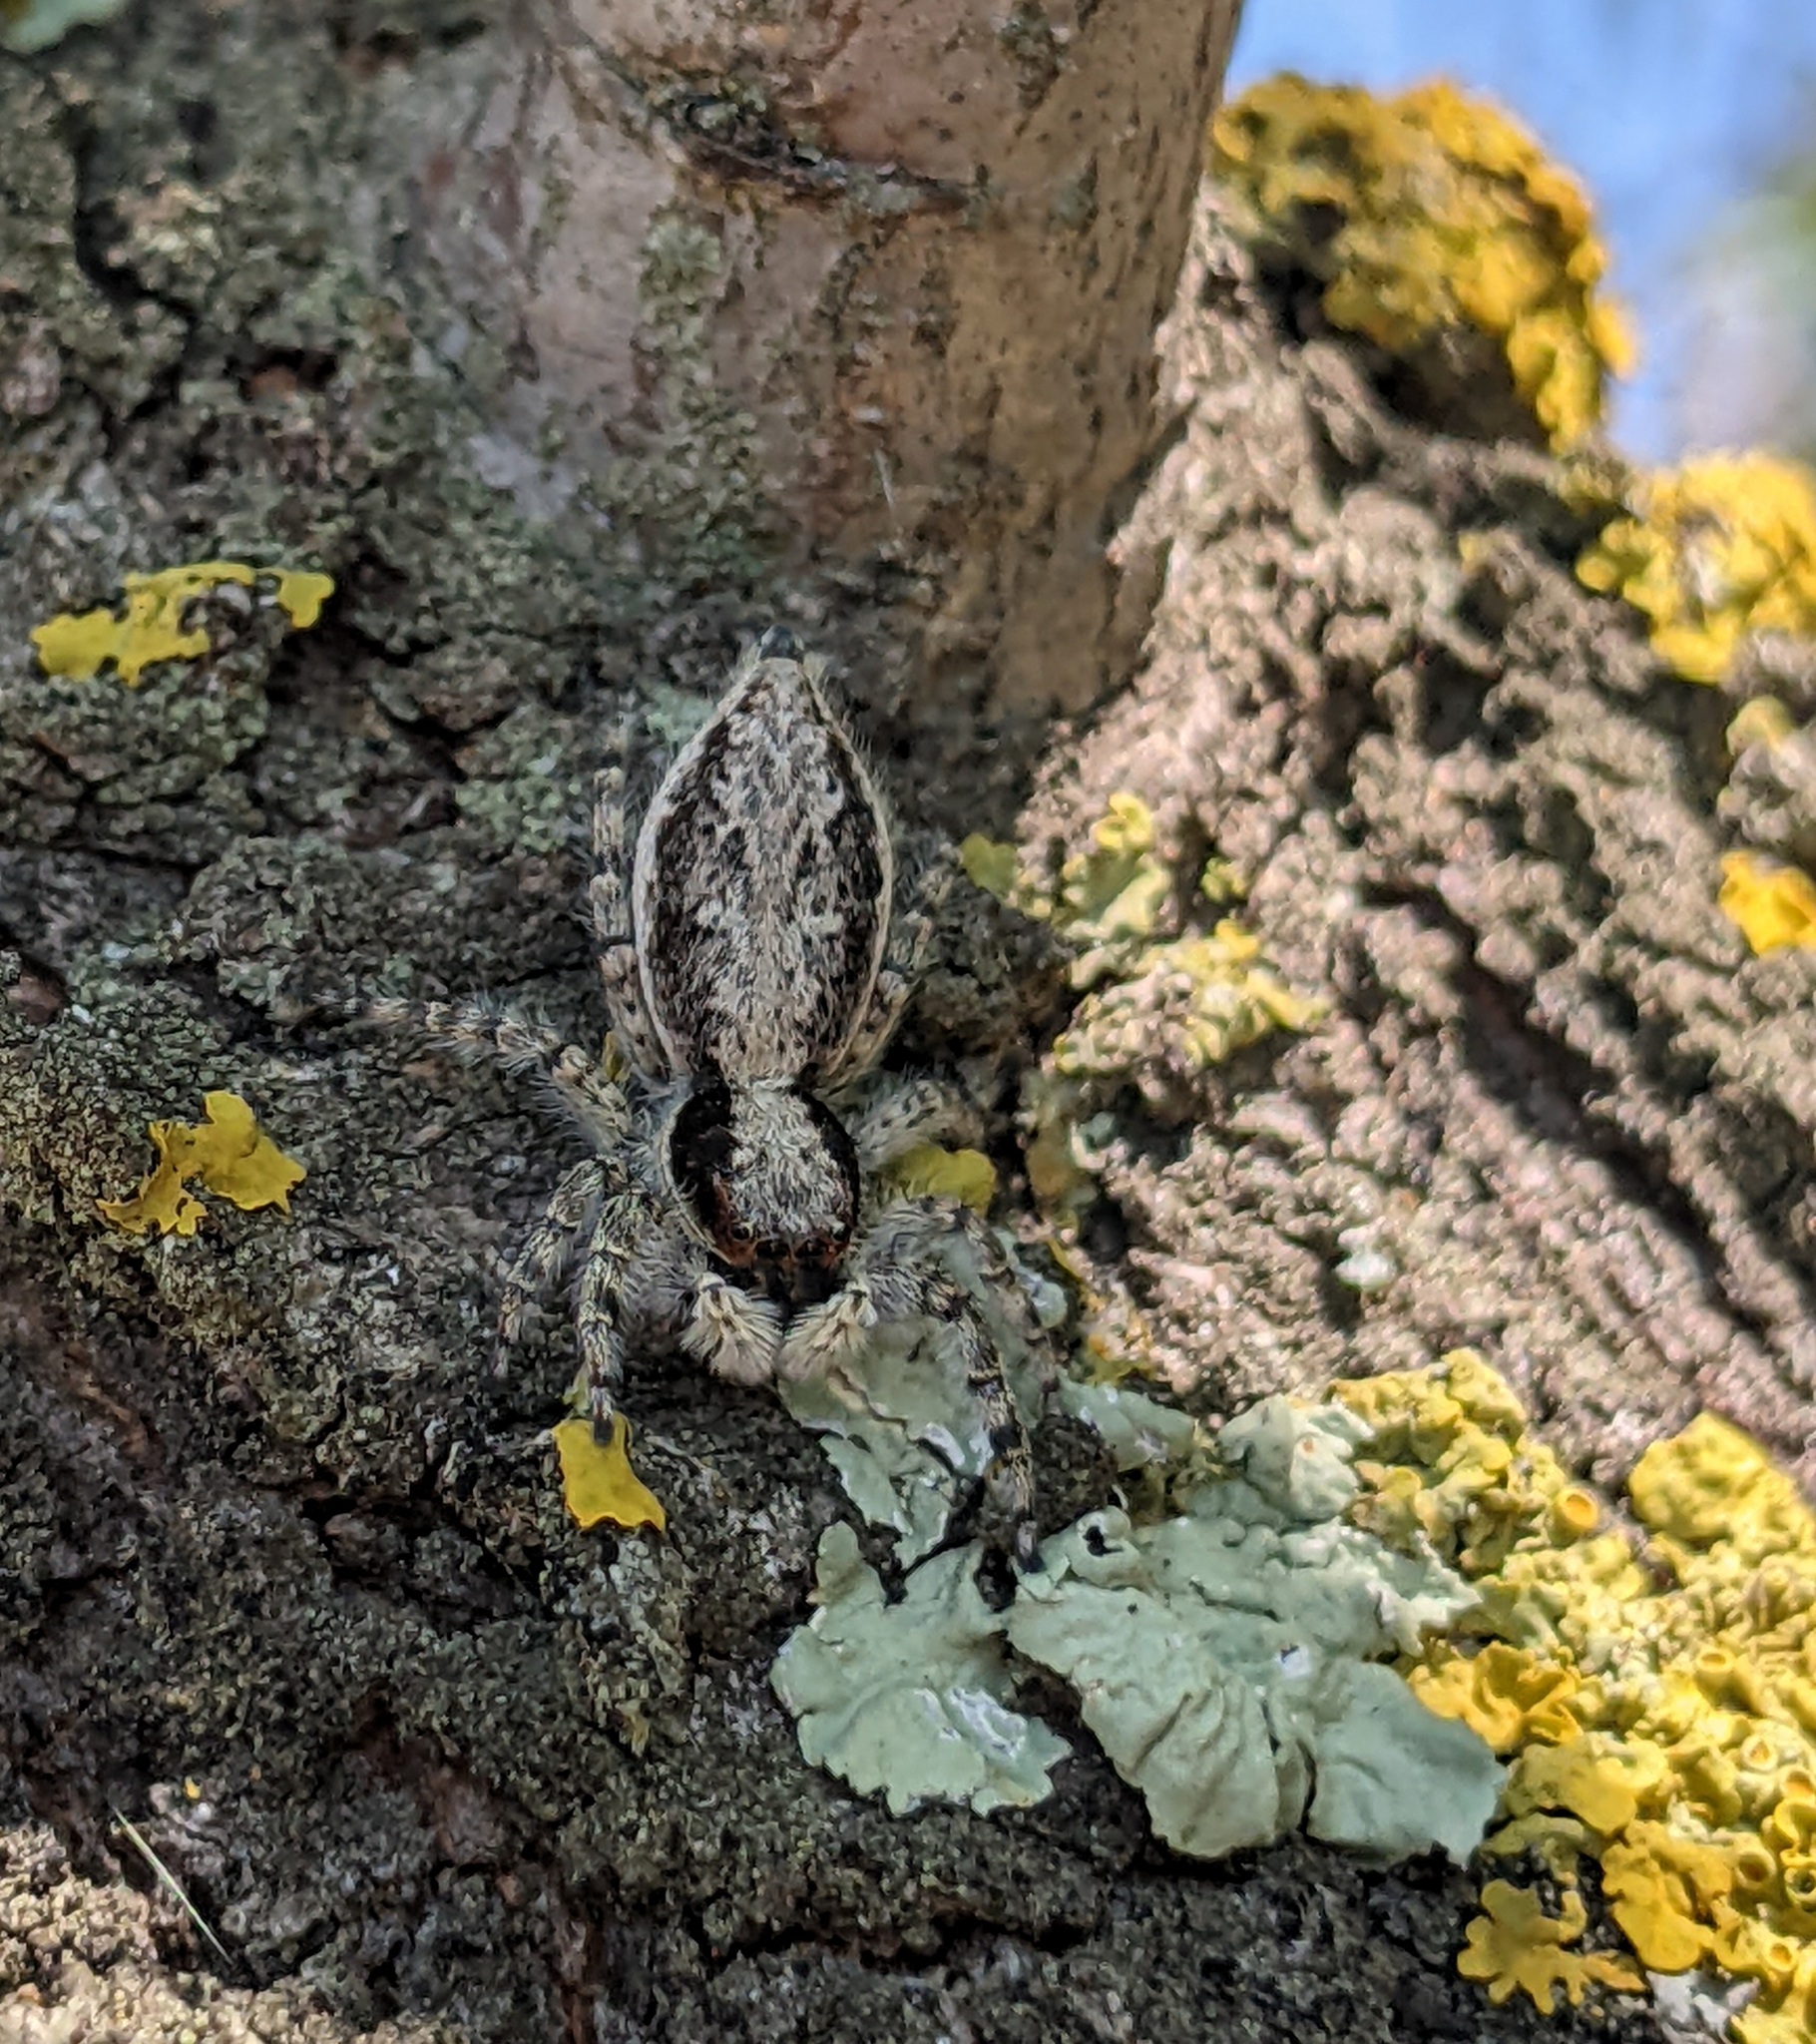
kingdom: Animalia
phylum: Arthropoda
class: Arachnida
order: Araneae
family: Salticidae
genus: Menemerus
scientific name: Menemerus taeniatus
